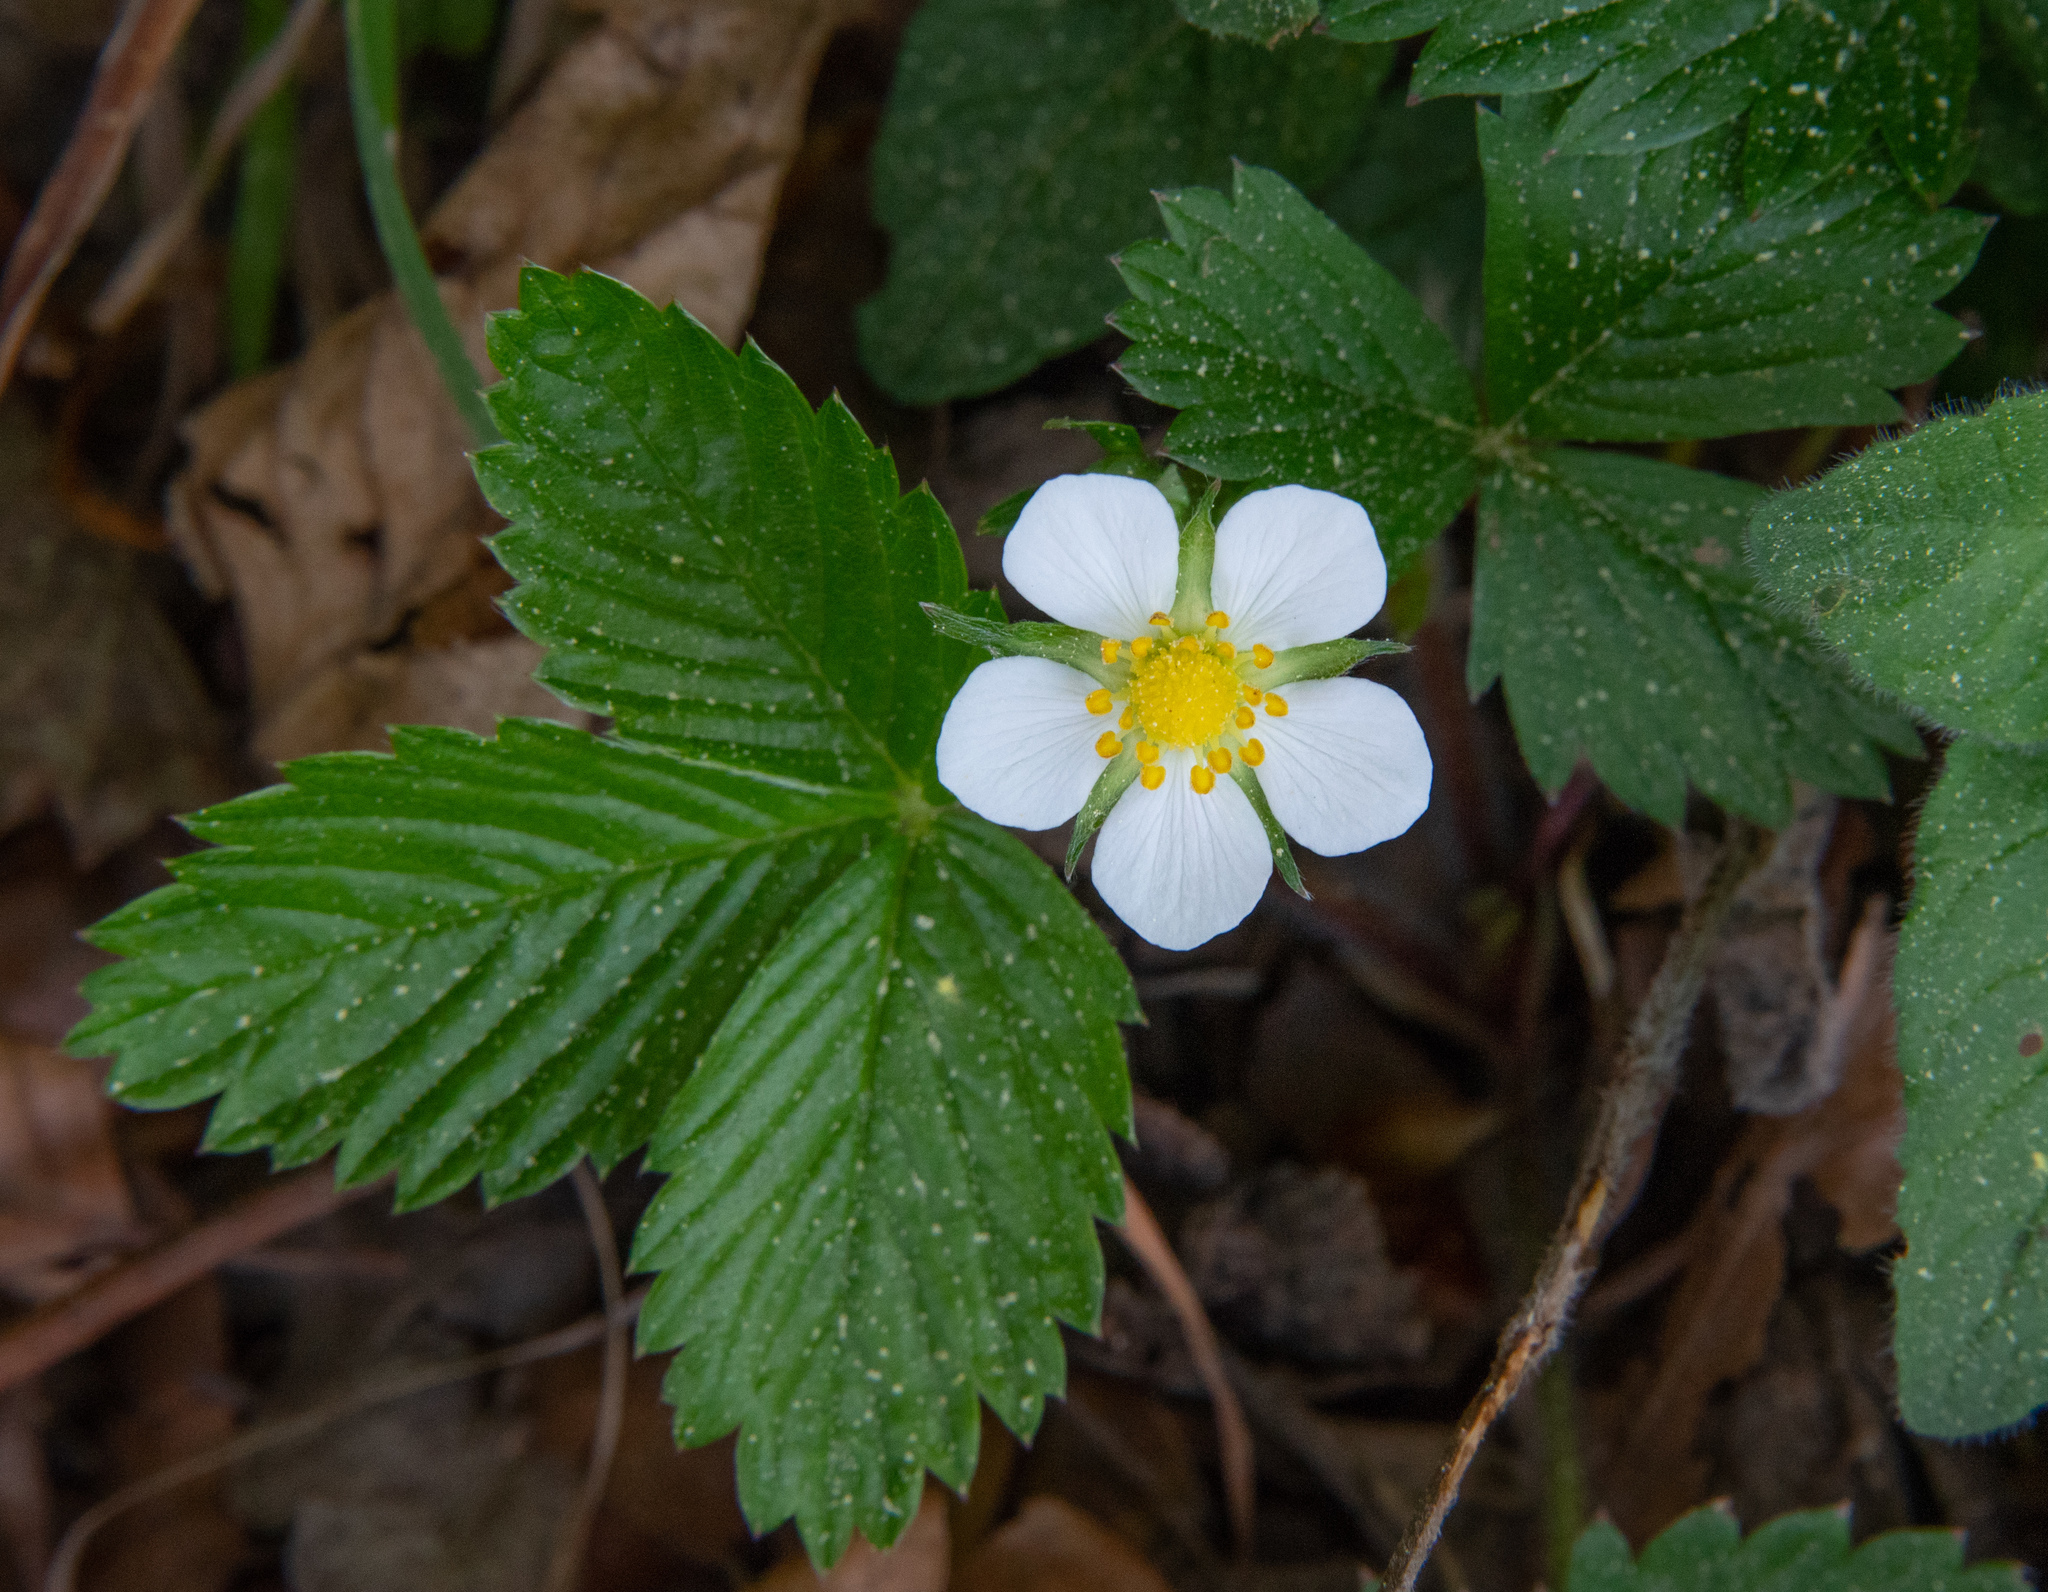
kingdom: Plantae
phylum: Tracheophyta
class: Magnoliopsida
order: Rosales
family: Rosaceae
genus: Fragaria
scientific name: Fragaria vesca
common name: Wild strawberry
